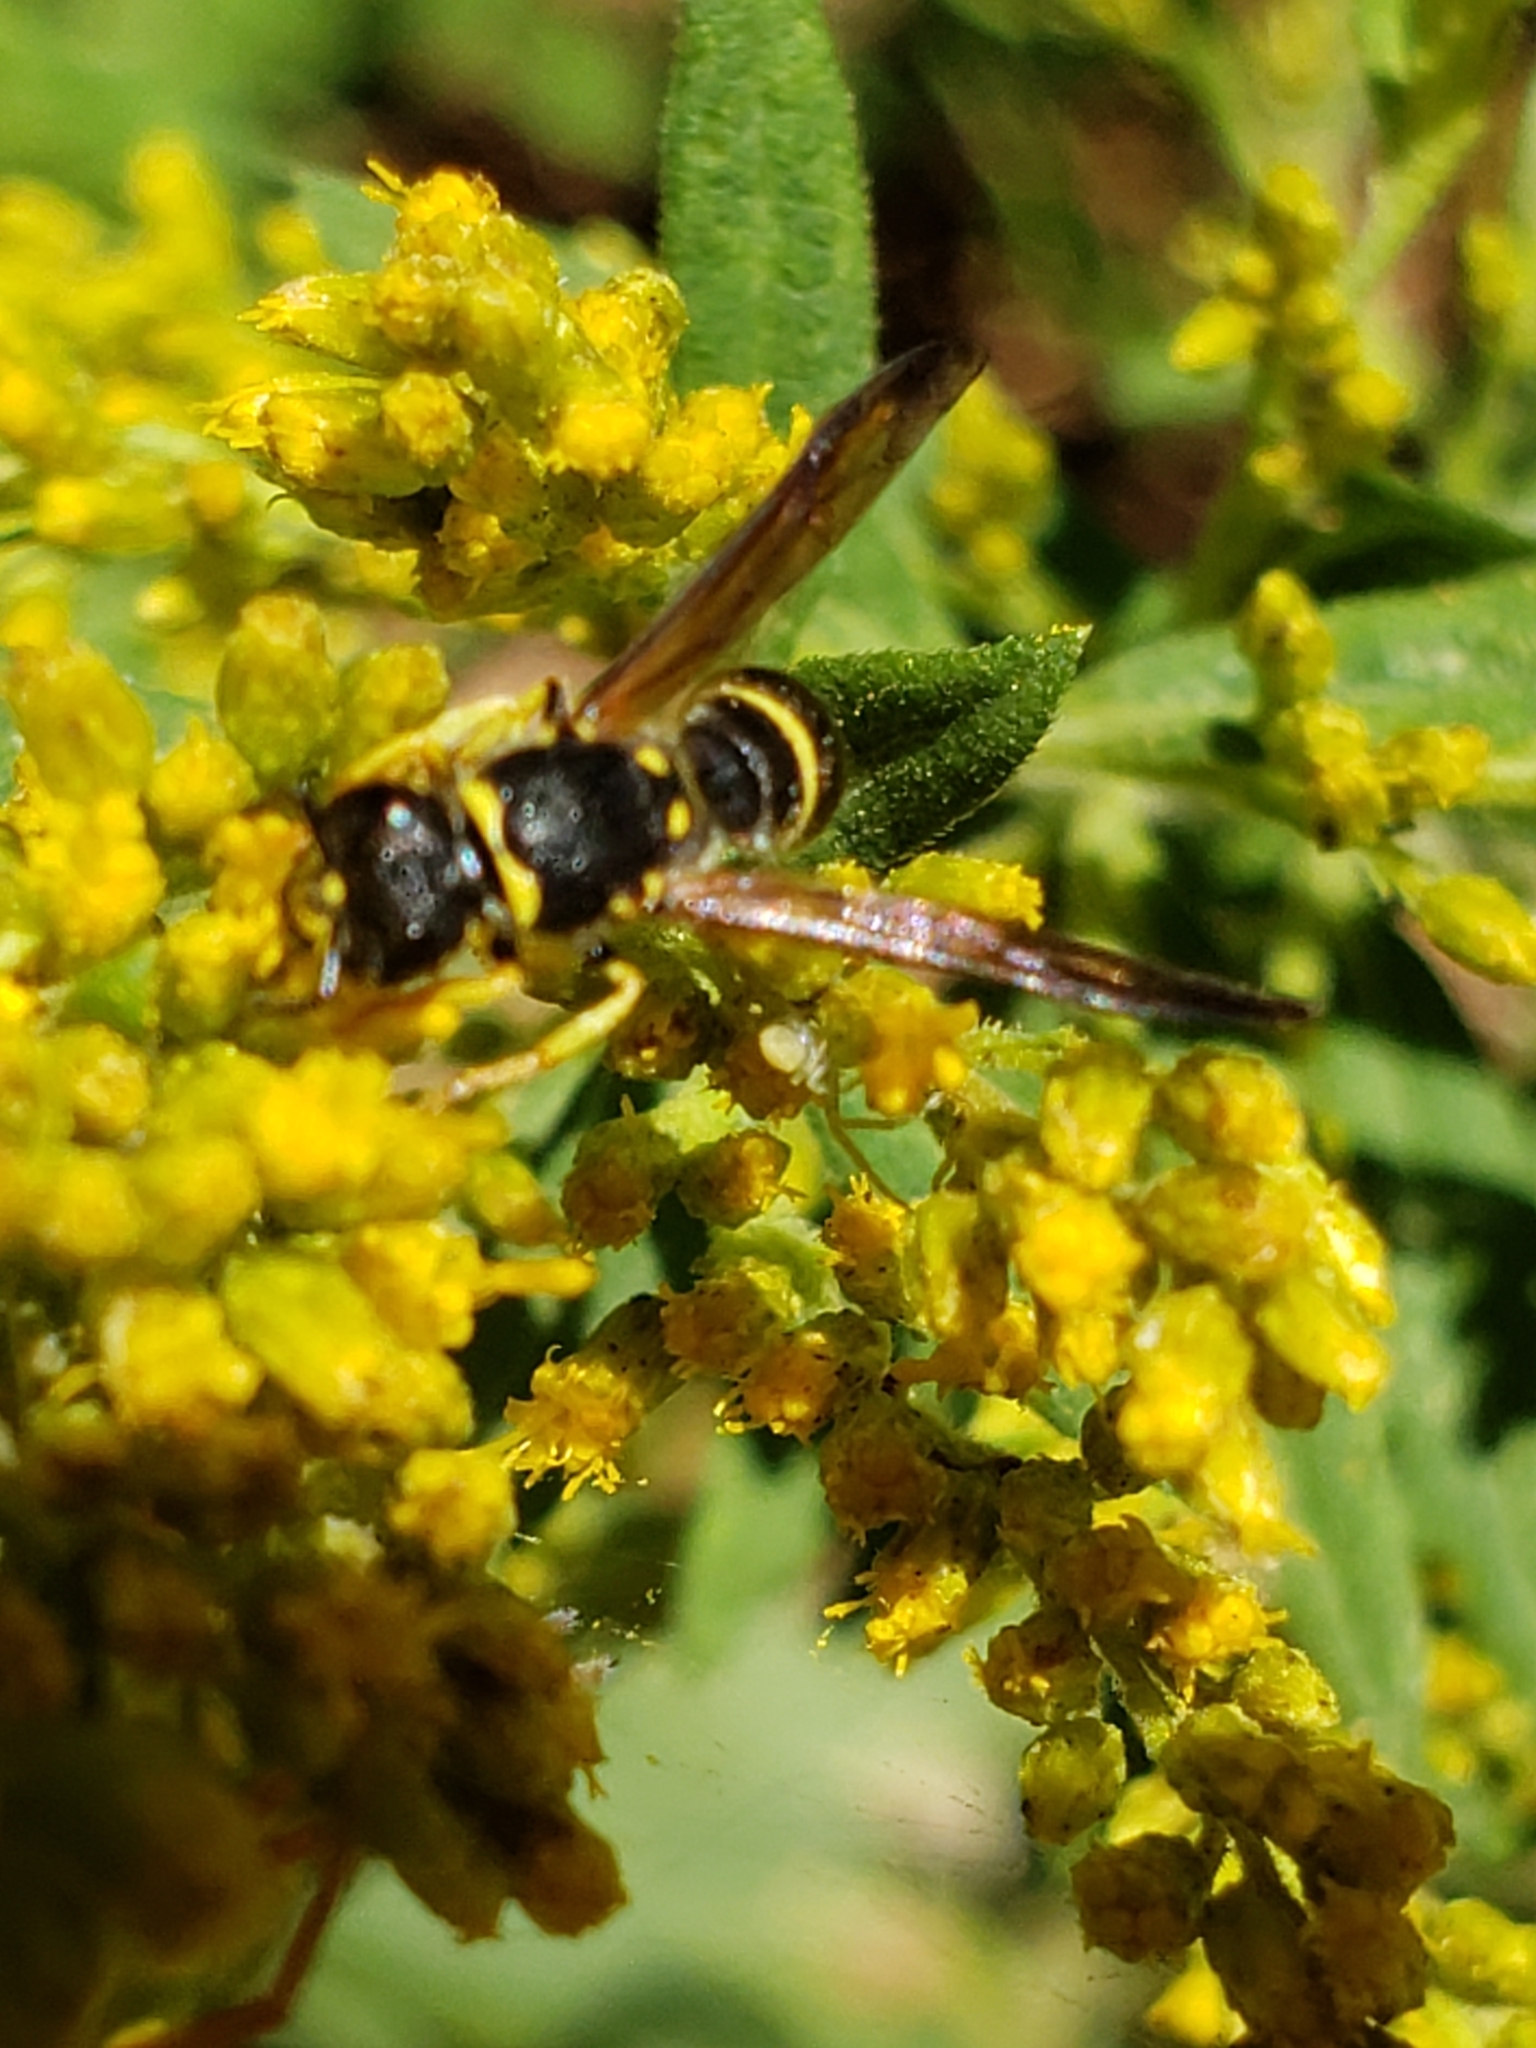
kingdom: Animalia
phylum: Arthropoda
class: Insecta
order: Hymenoptera
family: Vespidae
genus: Ancistrocerus
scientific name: Ancistrocerus adiabatus
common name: Bramble mason wasp
